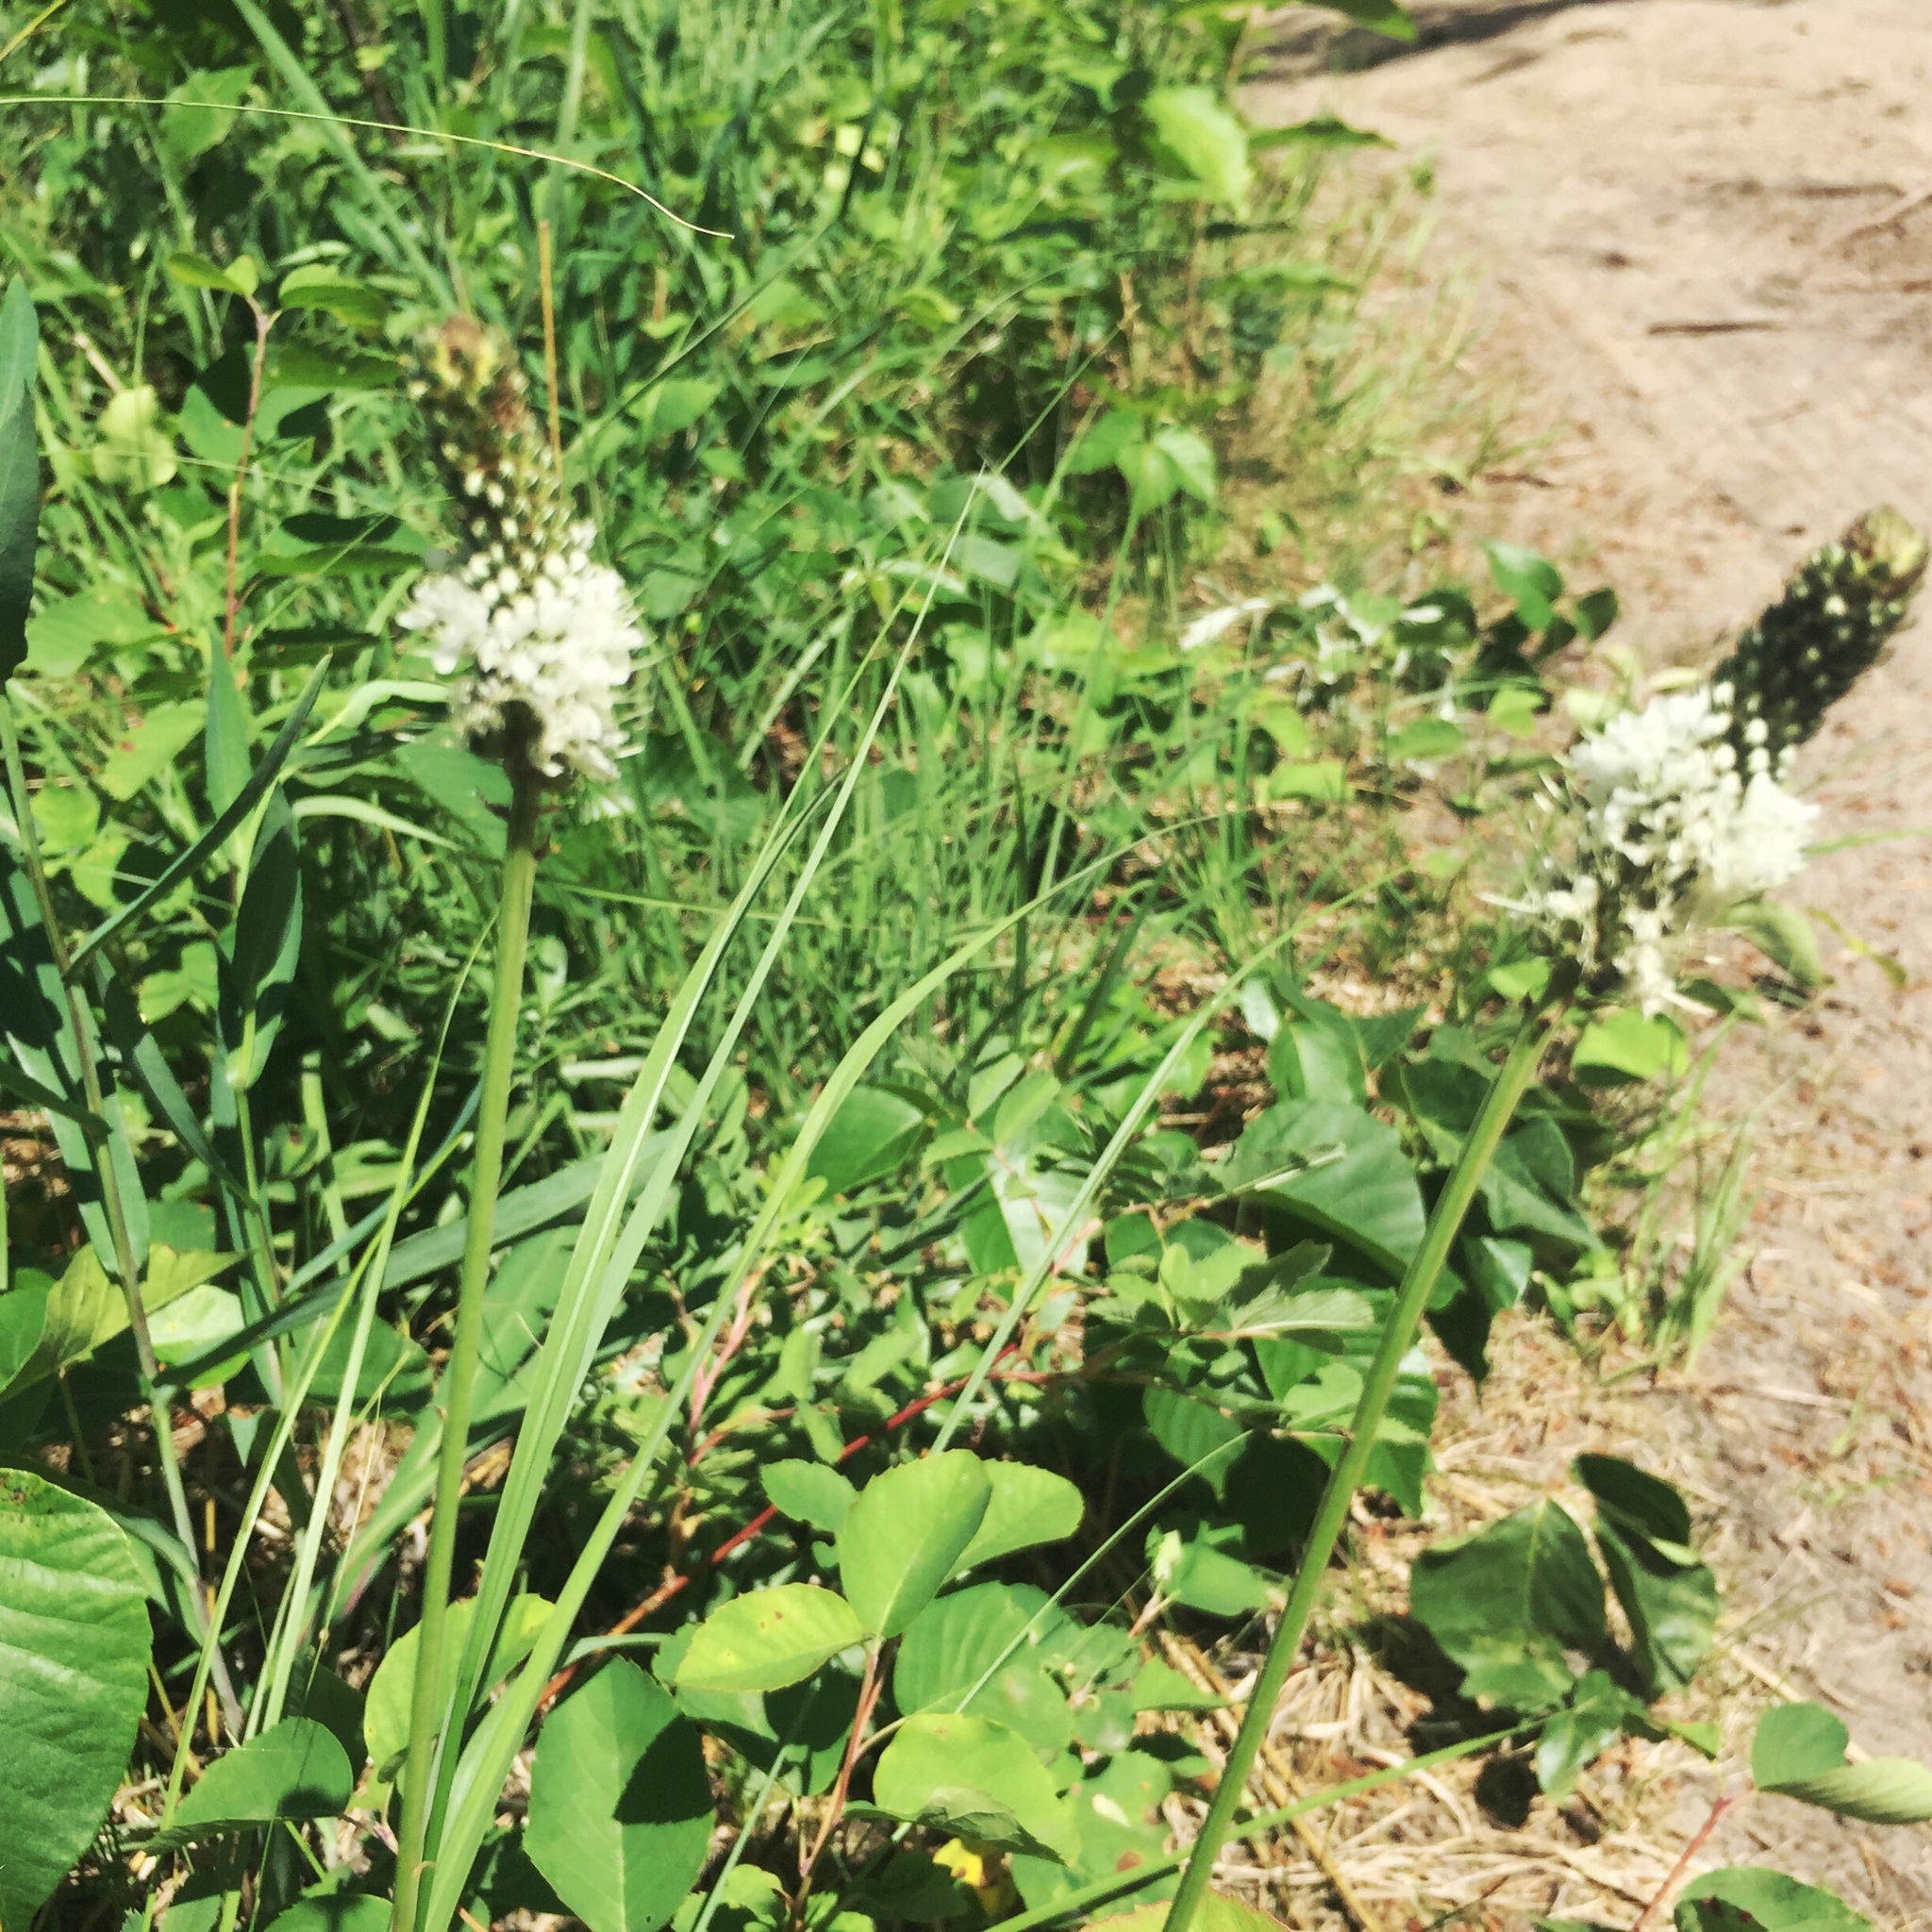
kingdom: Plantae
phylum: Tracheophyta
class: Magnoliopsida
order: Fabales
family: Fabaceae
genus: Dalea
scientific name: Dalea candida
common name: White prairie-clover
